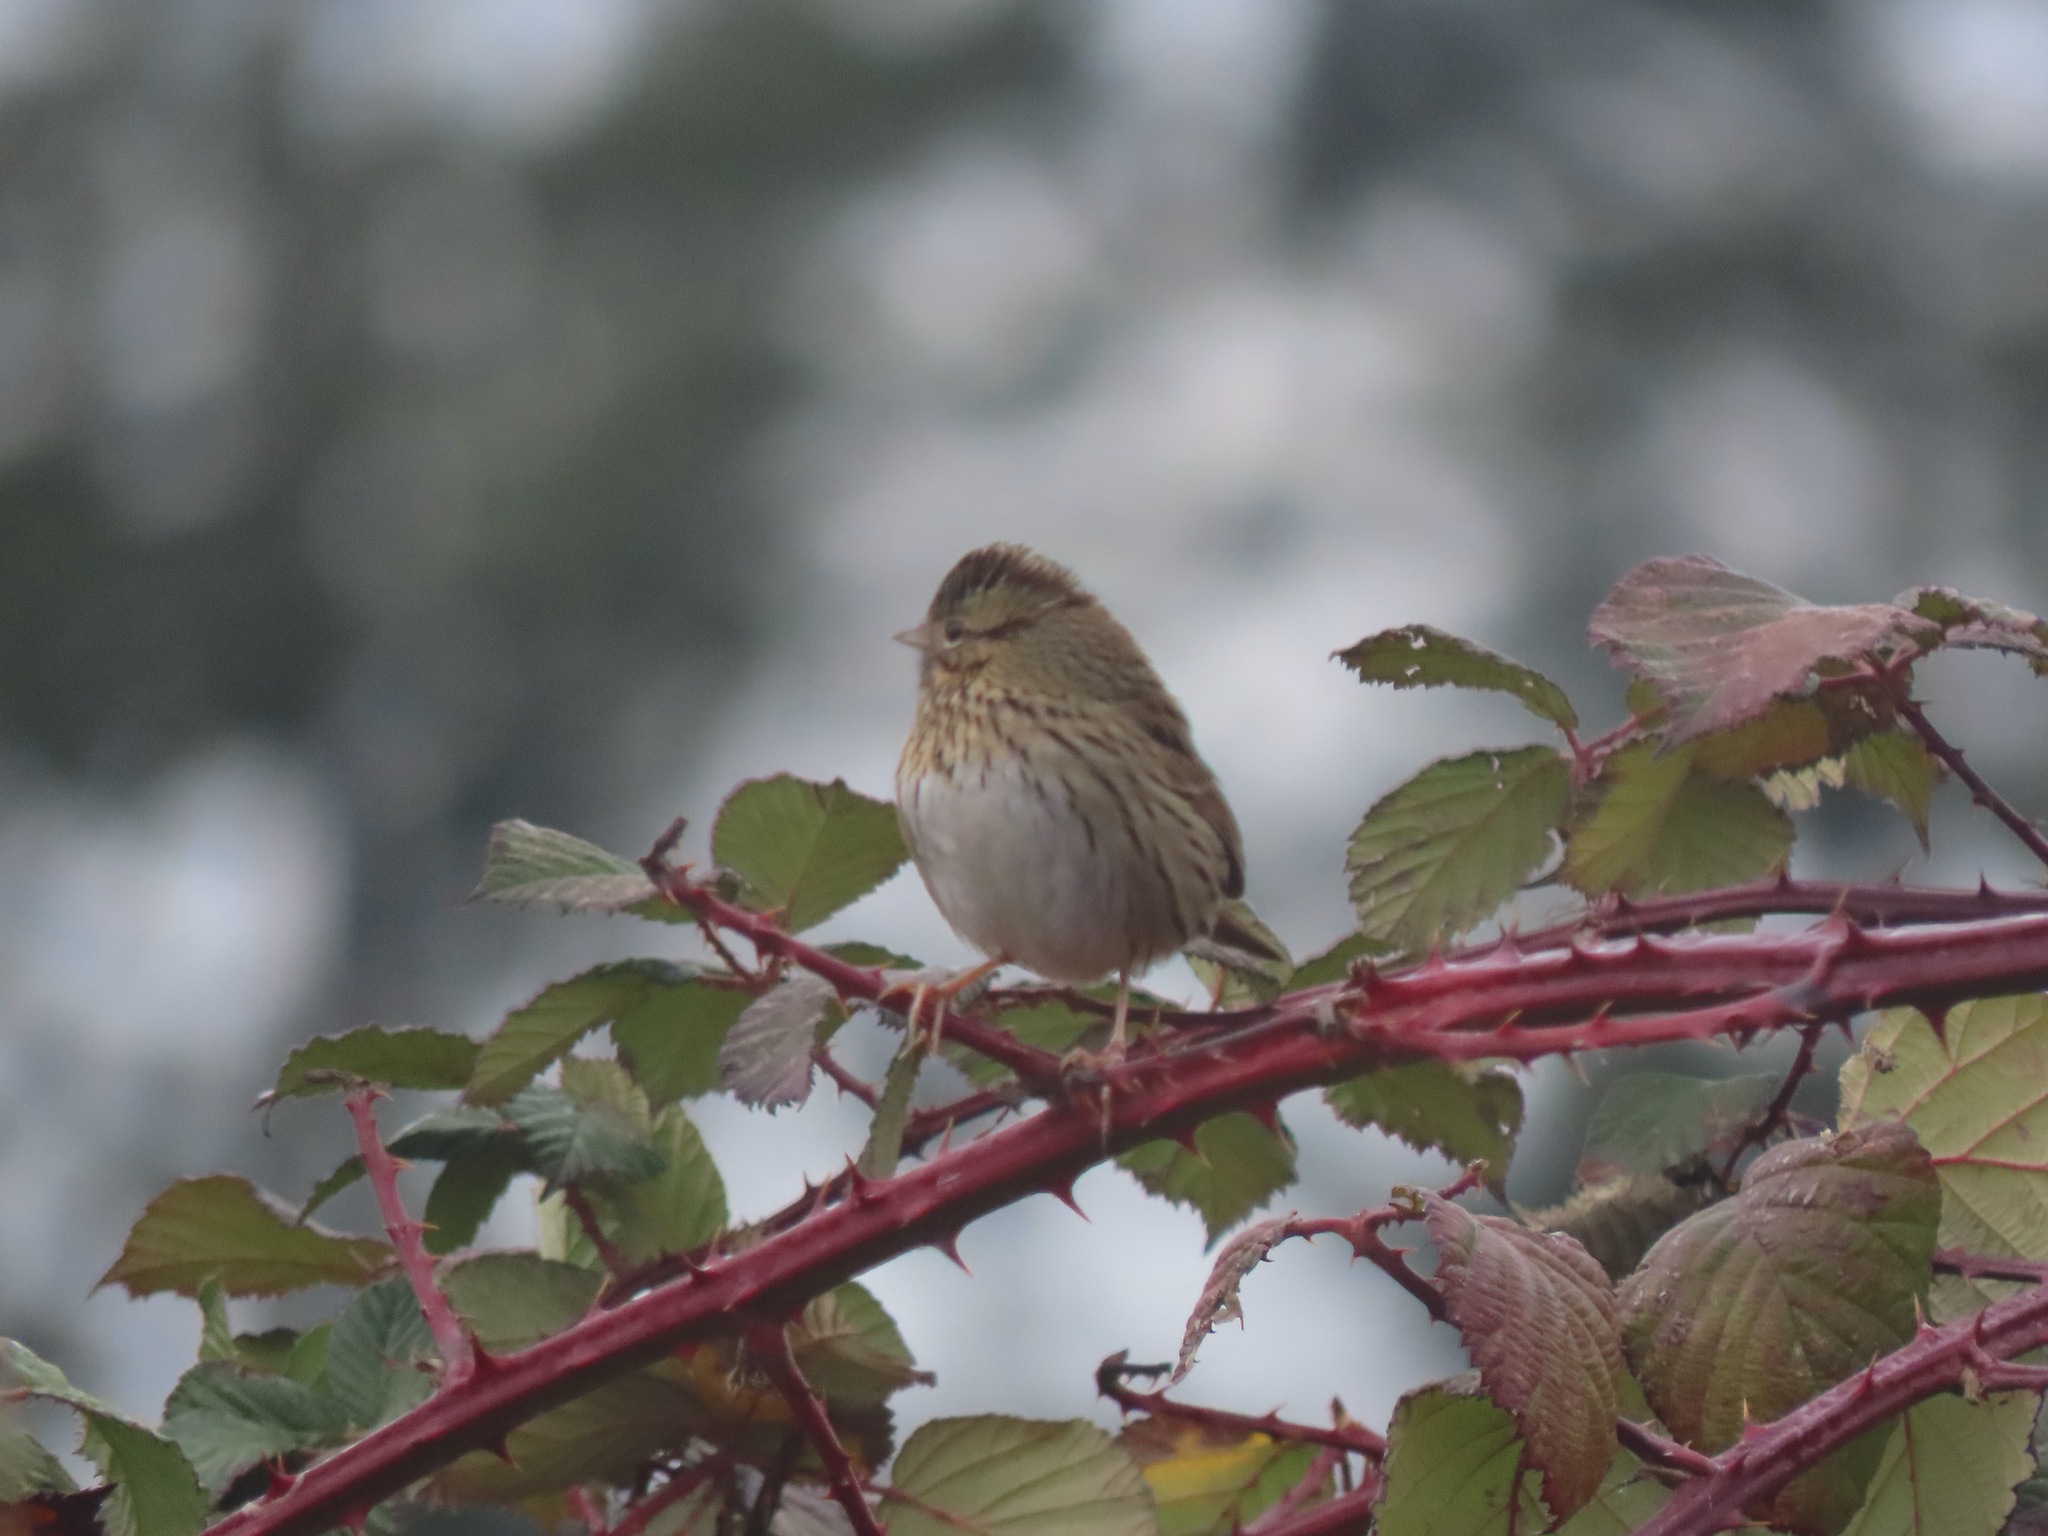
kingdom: Animalia
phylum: Chordata
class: Aves
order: Passeriformes
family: Passerellidae
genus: Melospiza
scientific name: Melospiza lincolnii
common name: Lincoln's sparrow
